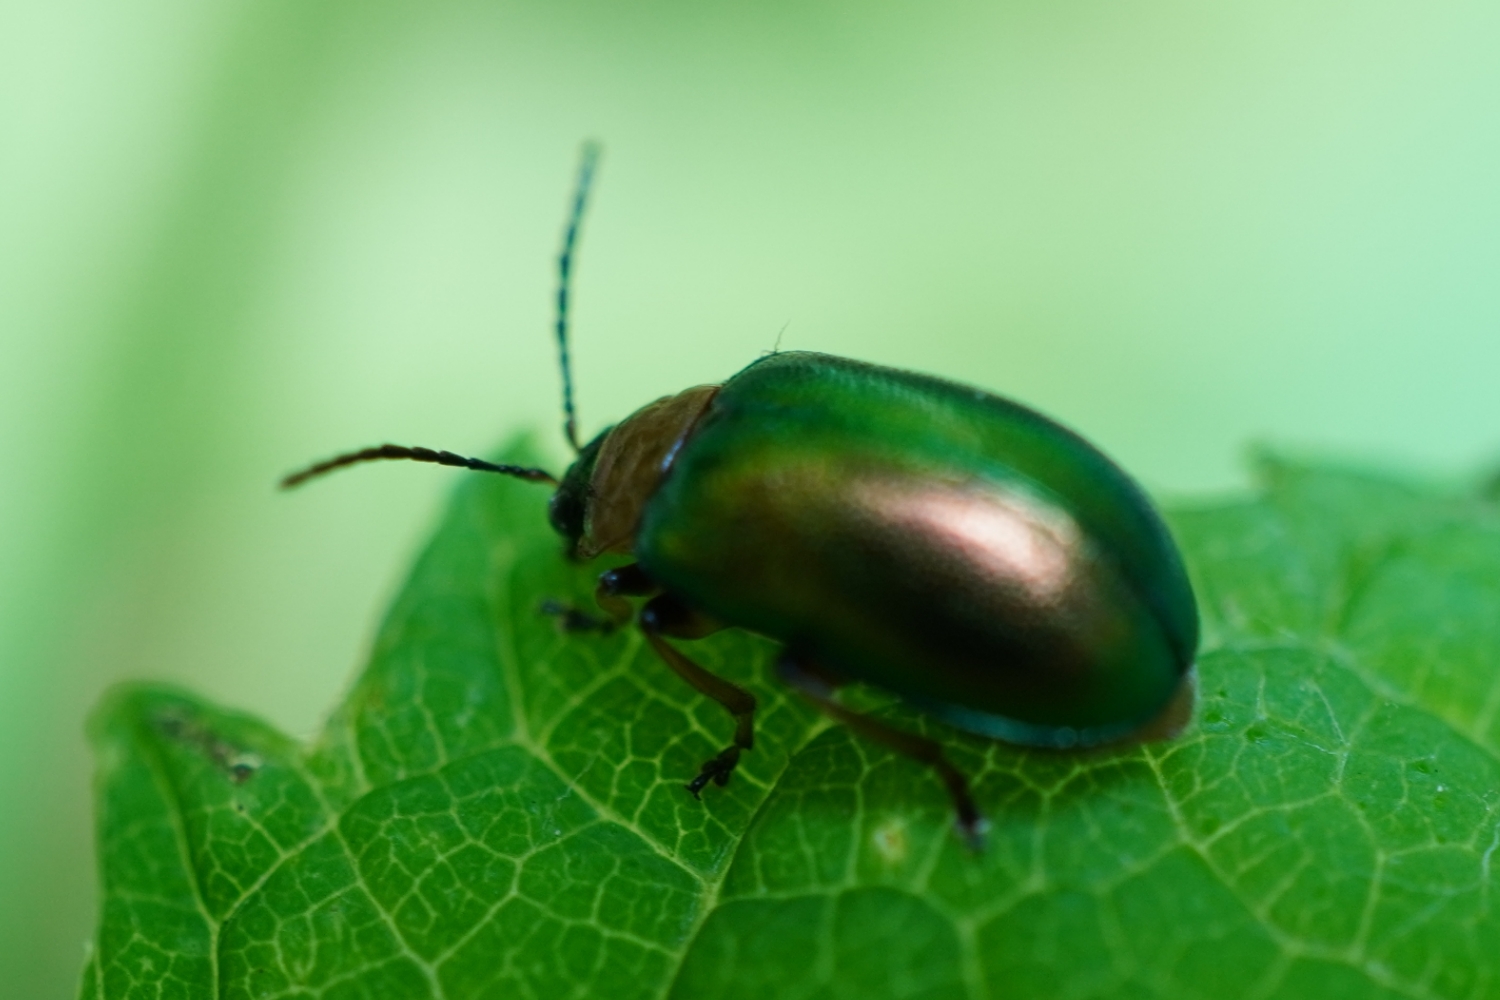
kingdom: Animalia
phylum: Arthropoda
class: Insecta
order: Coleoptera
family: Chrysomelidae
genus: Agelasa
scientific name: Agelasa nigriceps
